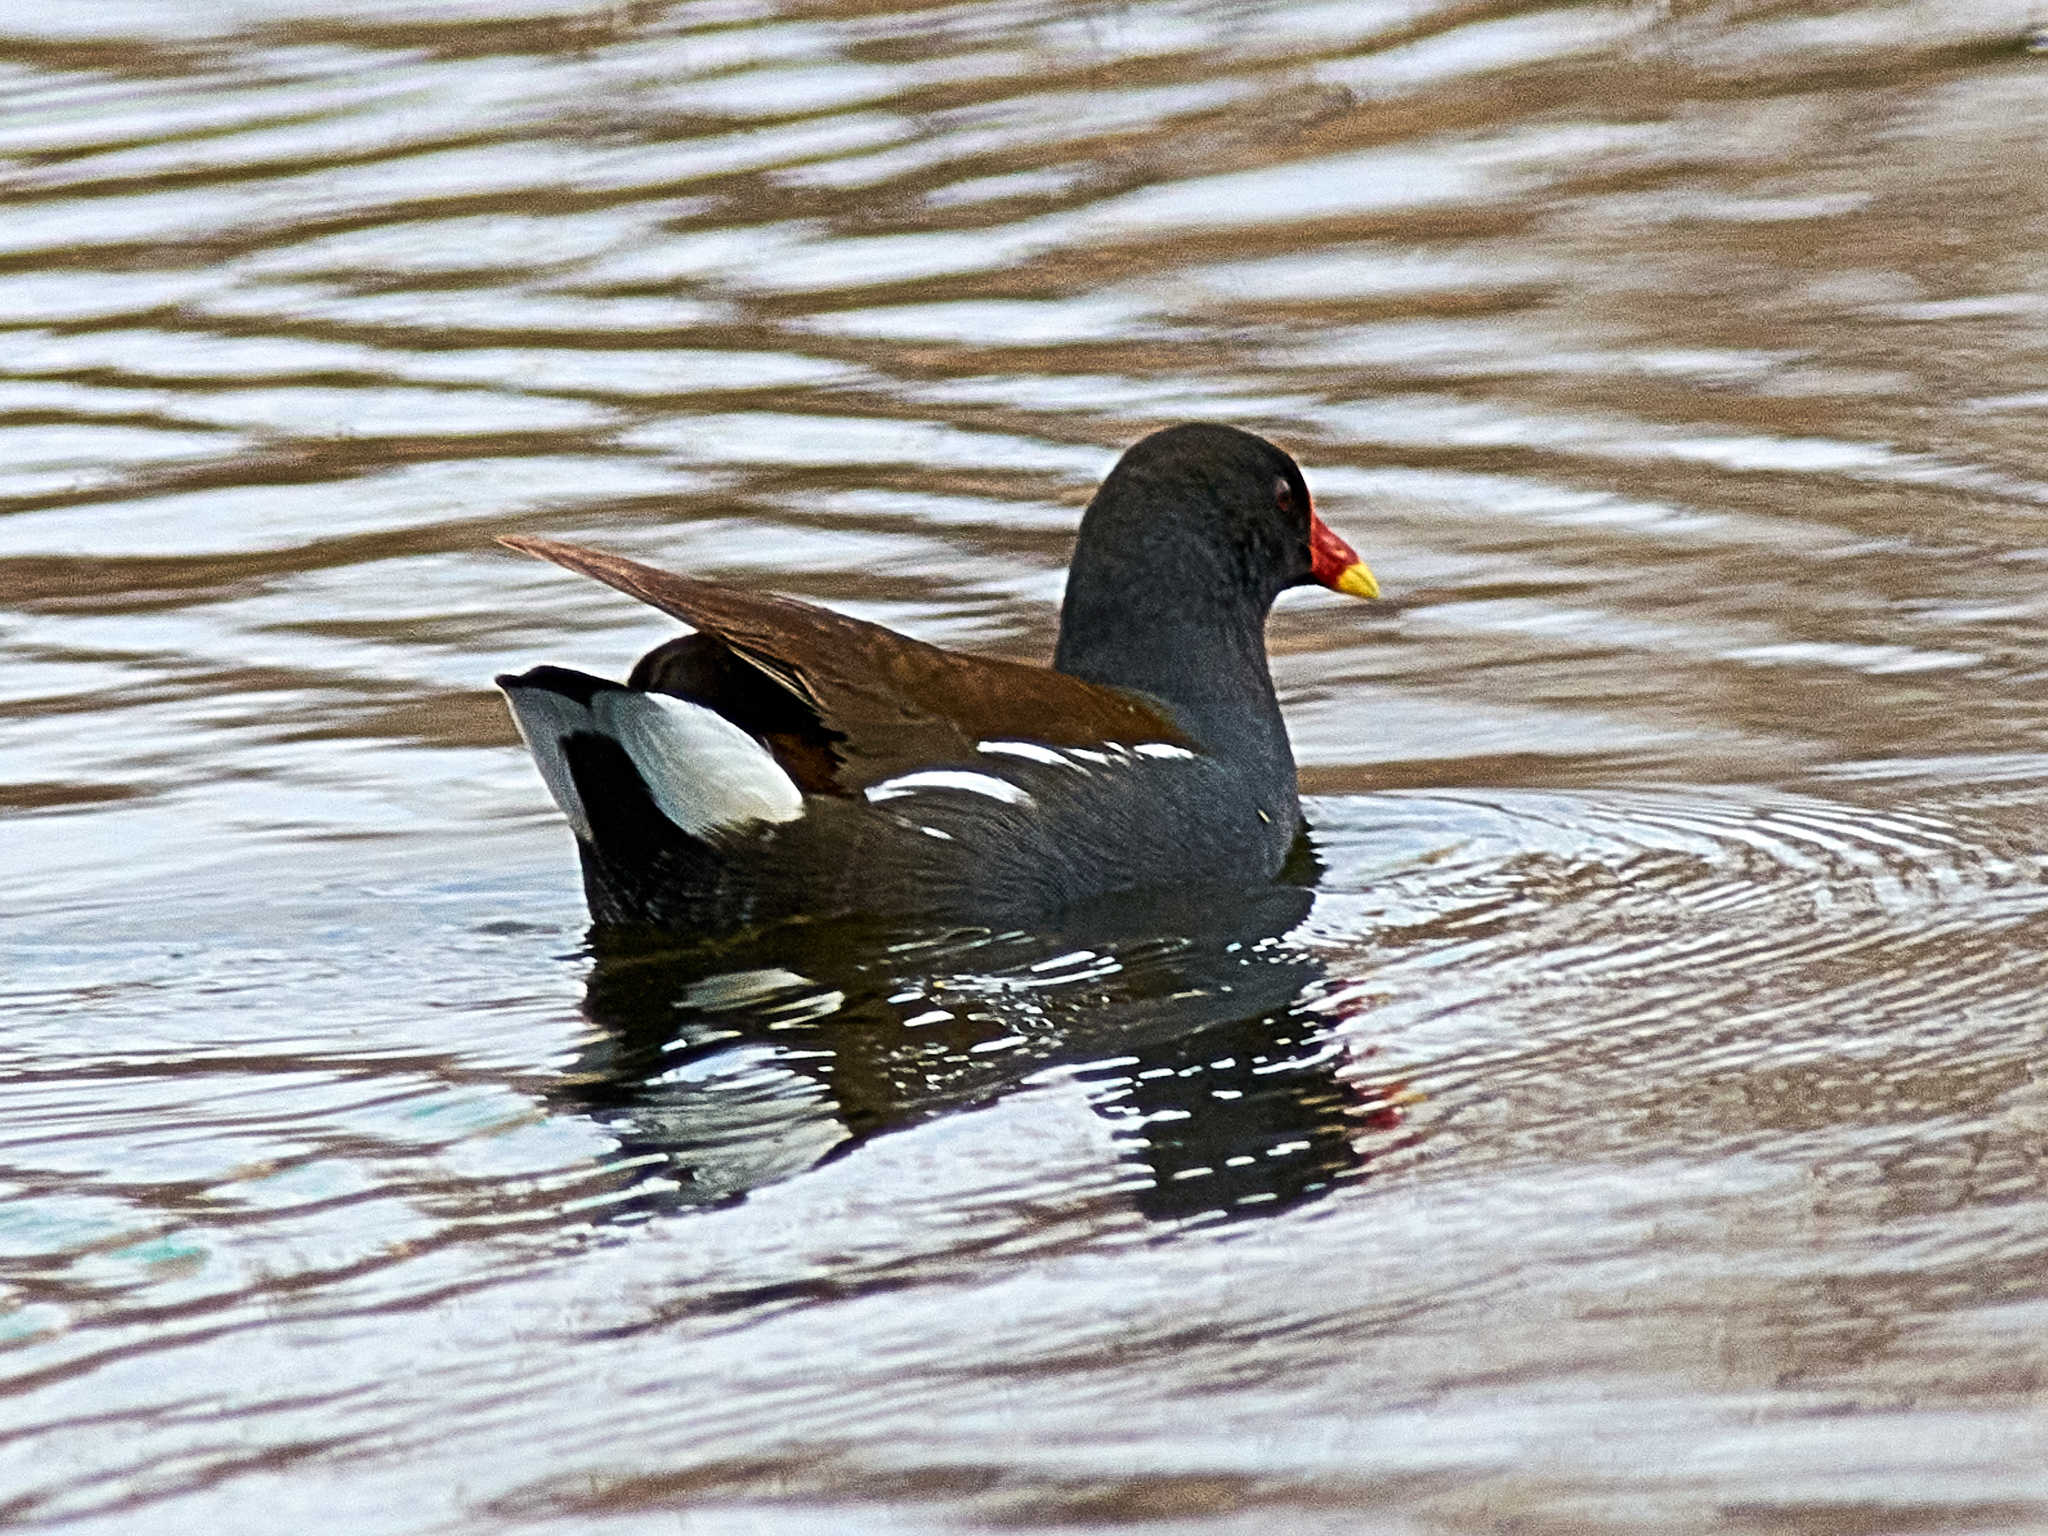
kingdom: Animalia
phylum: Chordata
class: Aves
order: Gruiformes
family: Rallidae
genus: Gallinula
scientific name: Gallinula chloropus
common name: Common moorhen
